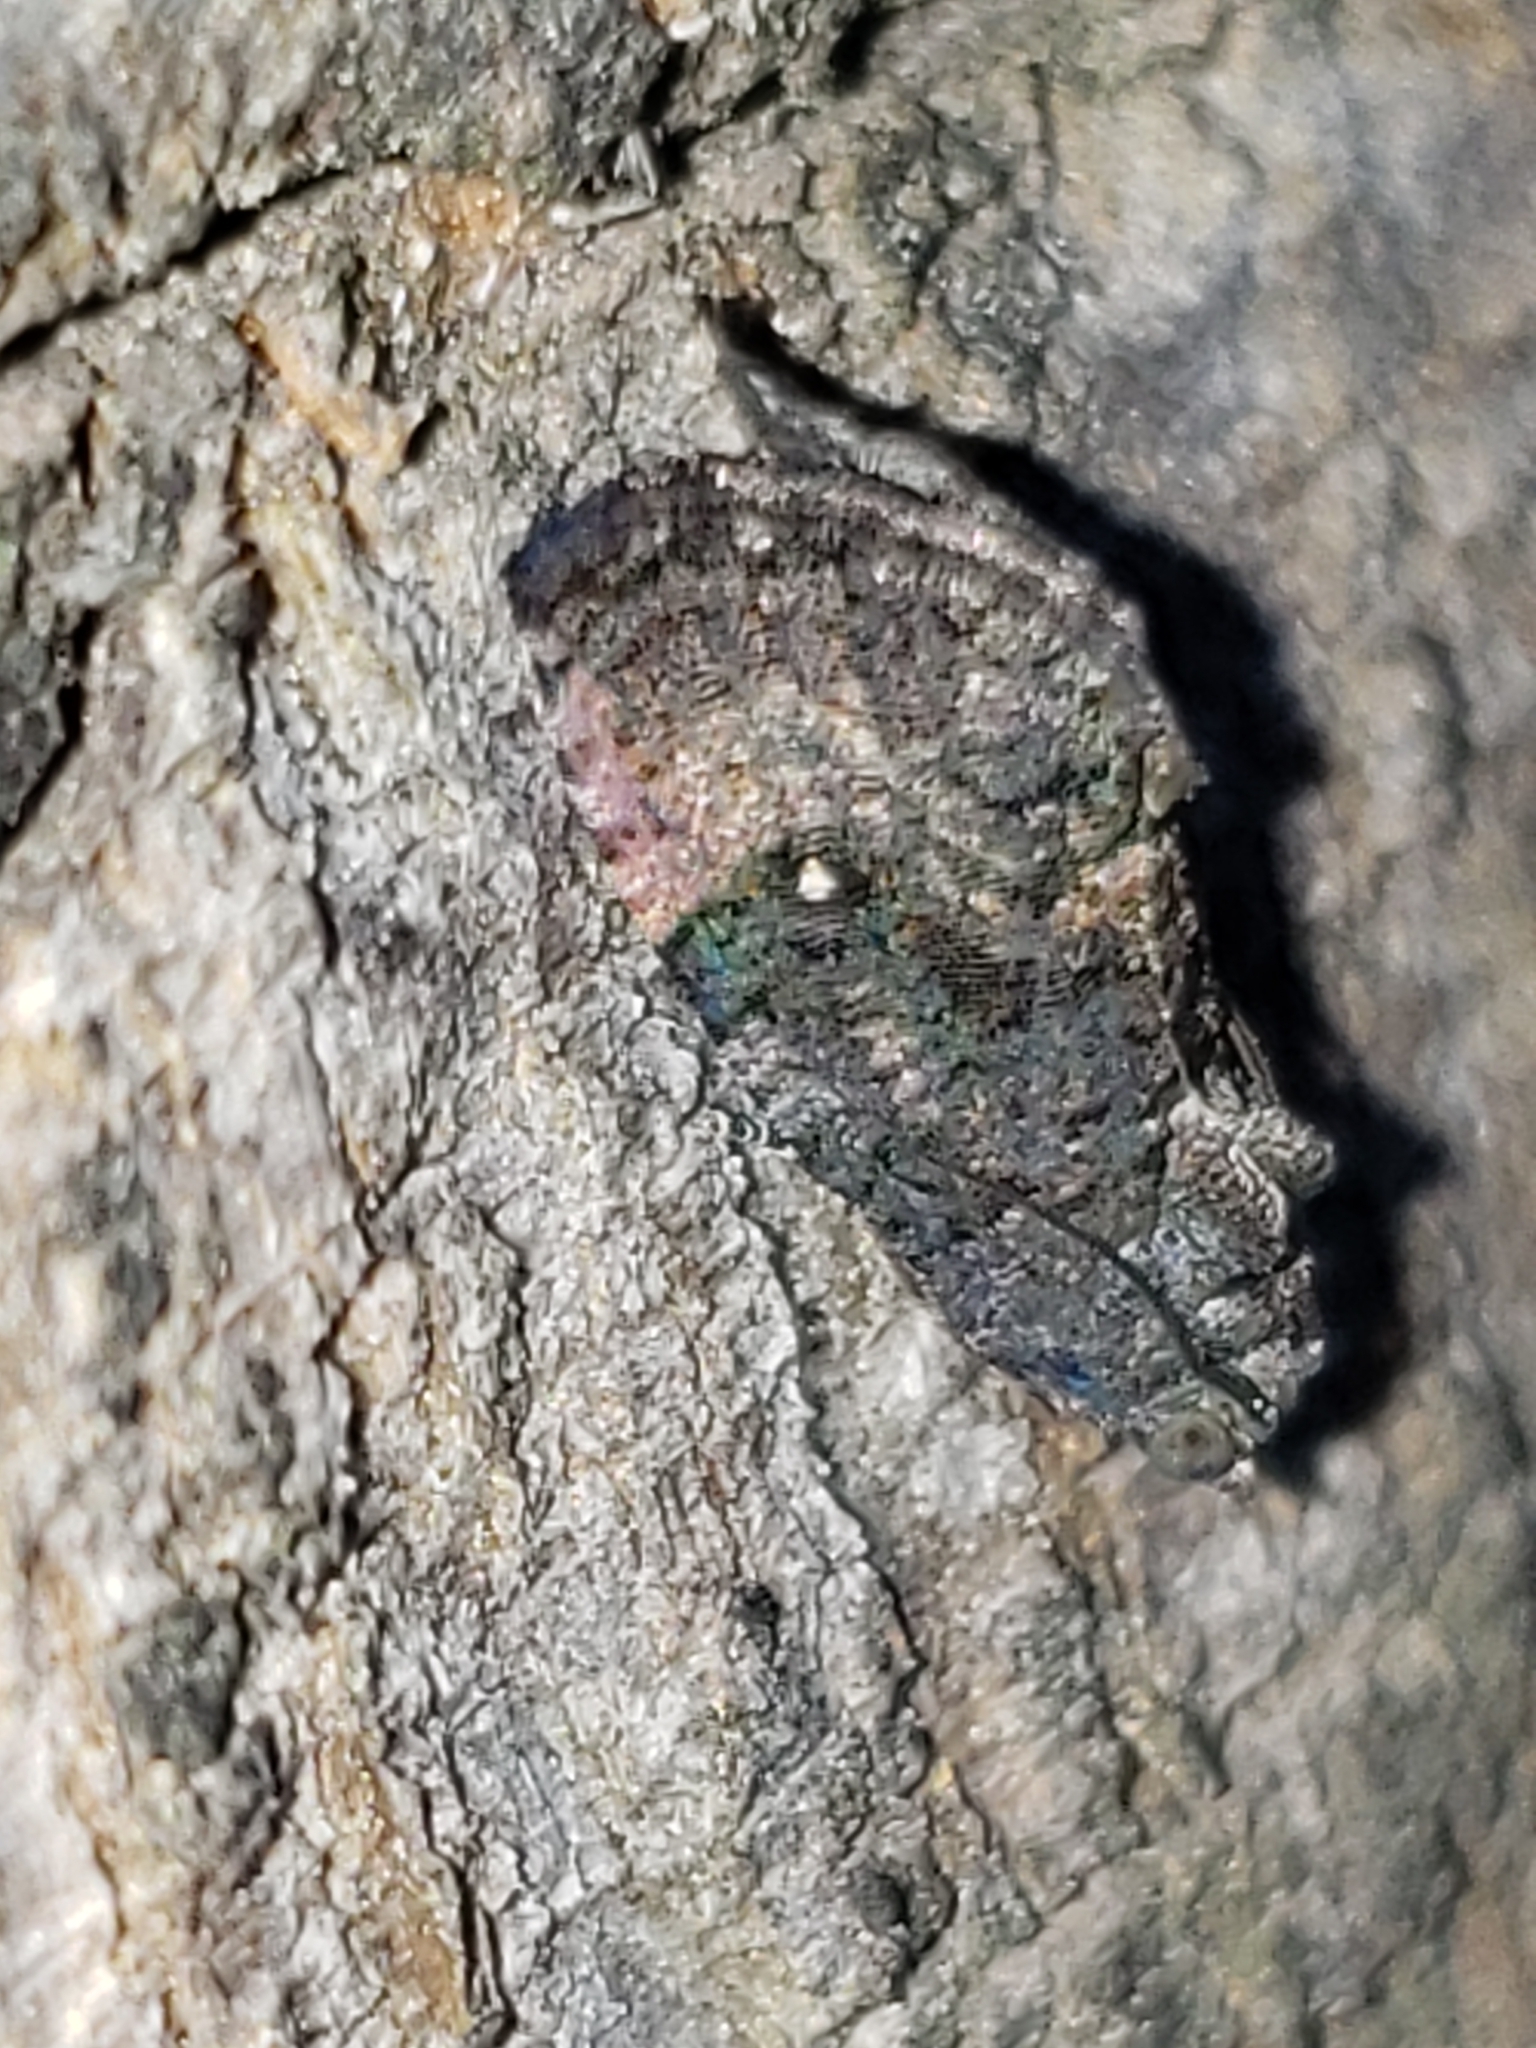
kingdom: Animalia
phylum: Arthropoda
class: Insecta
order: Lepidoptera
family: Tortricidae
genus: Gymnandrosoma
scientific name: Gymnandrosoma punctidiscanum
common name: Dotted ecdytolopha moth
